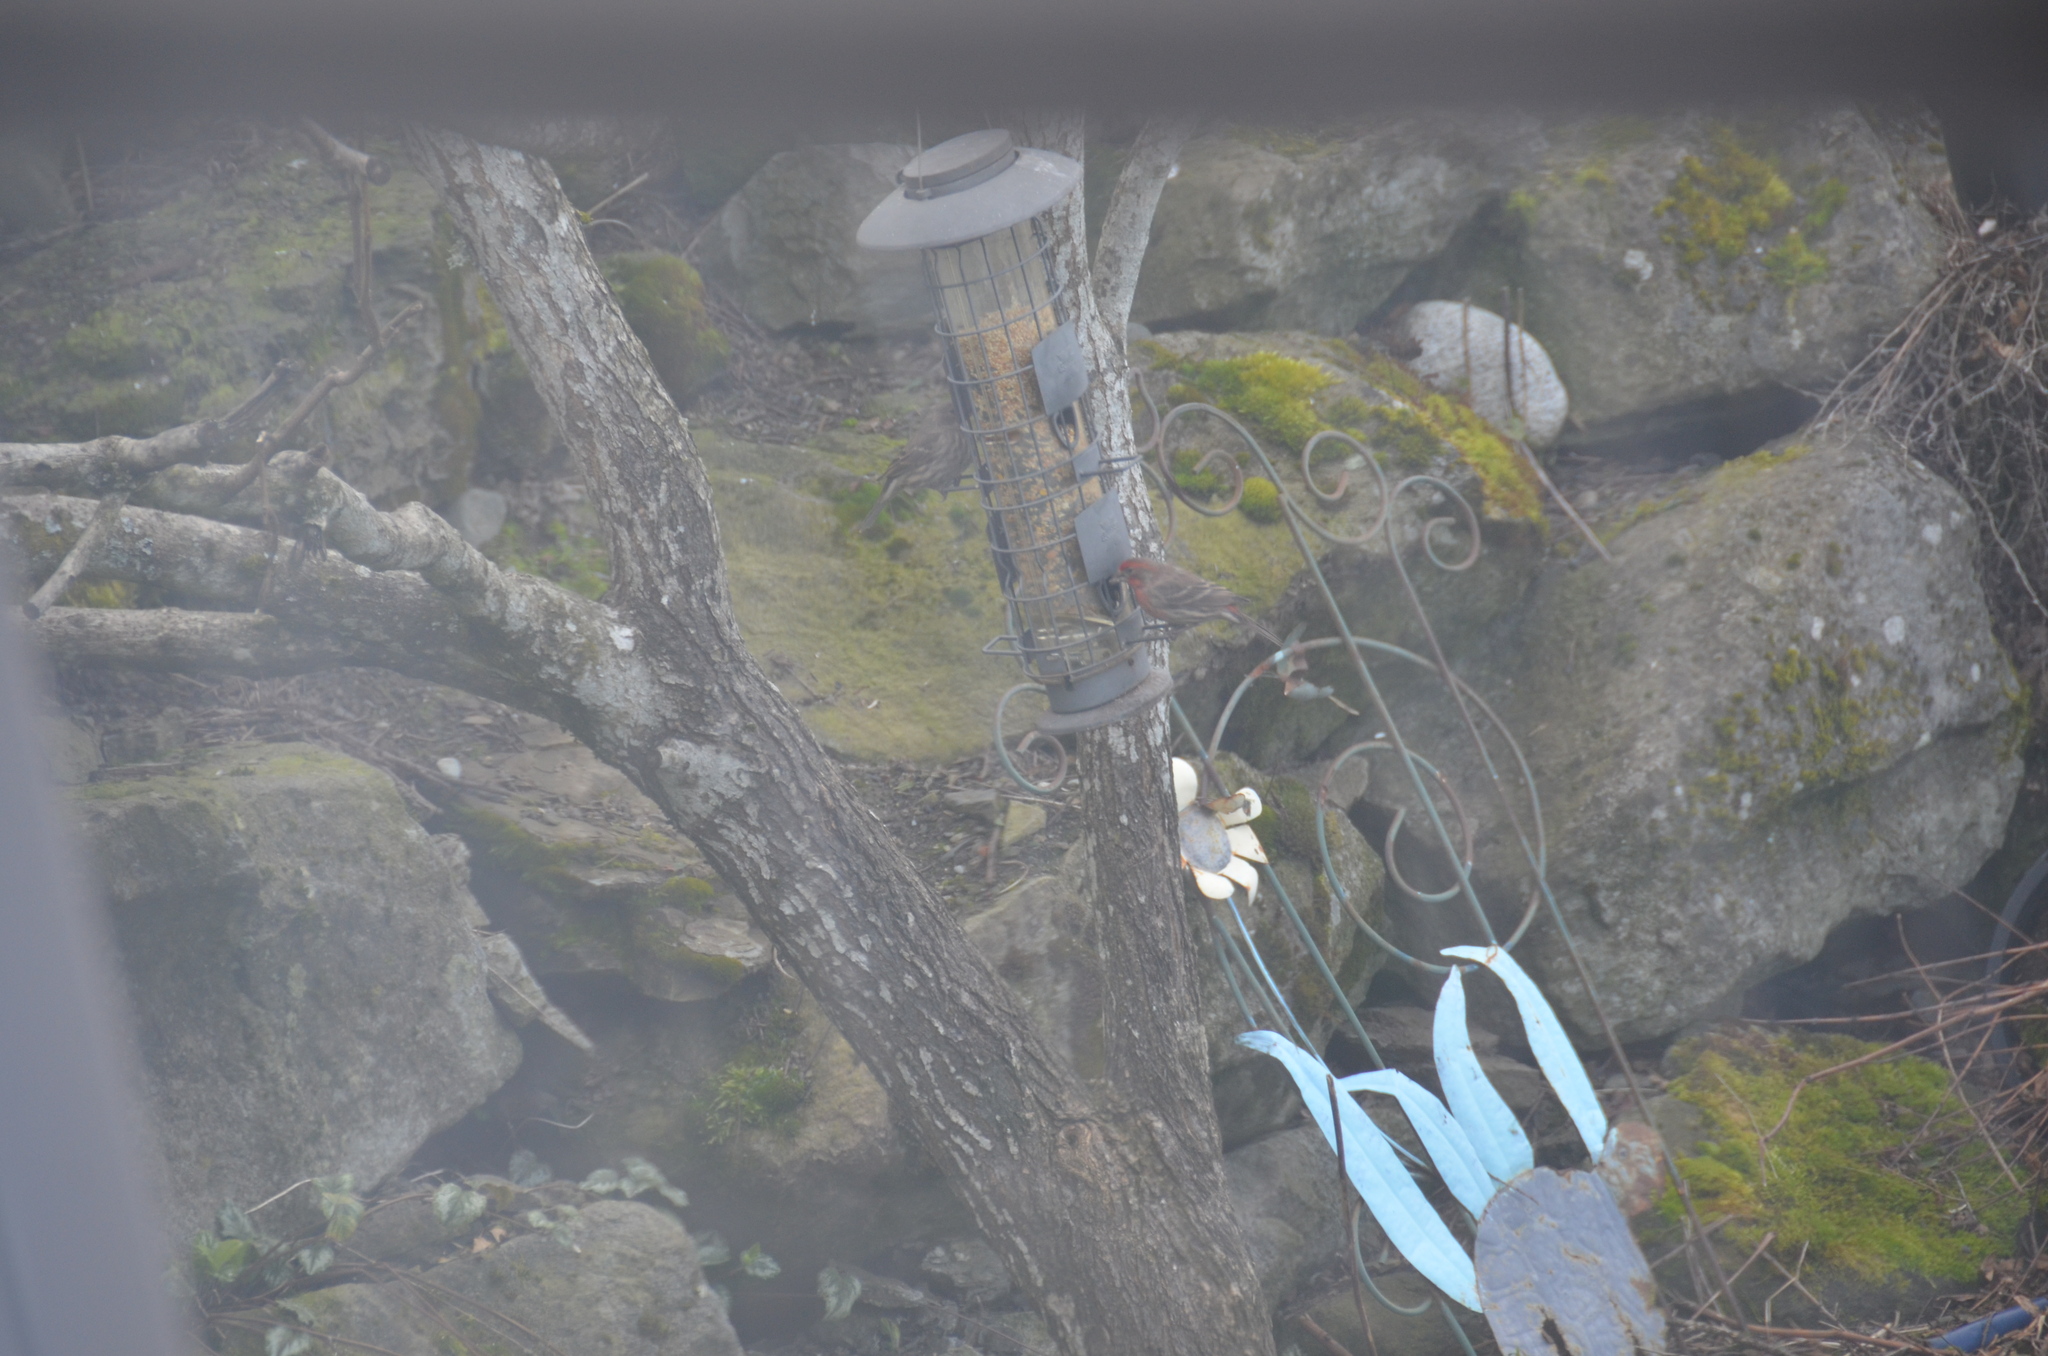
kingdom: Animalia
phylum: Chordata
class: Aves
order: Passeriformes
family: Fringillidae
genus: Haemorhous
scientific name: Haemorhous mexicanus
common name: House finch
